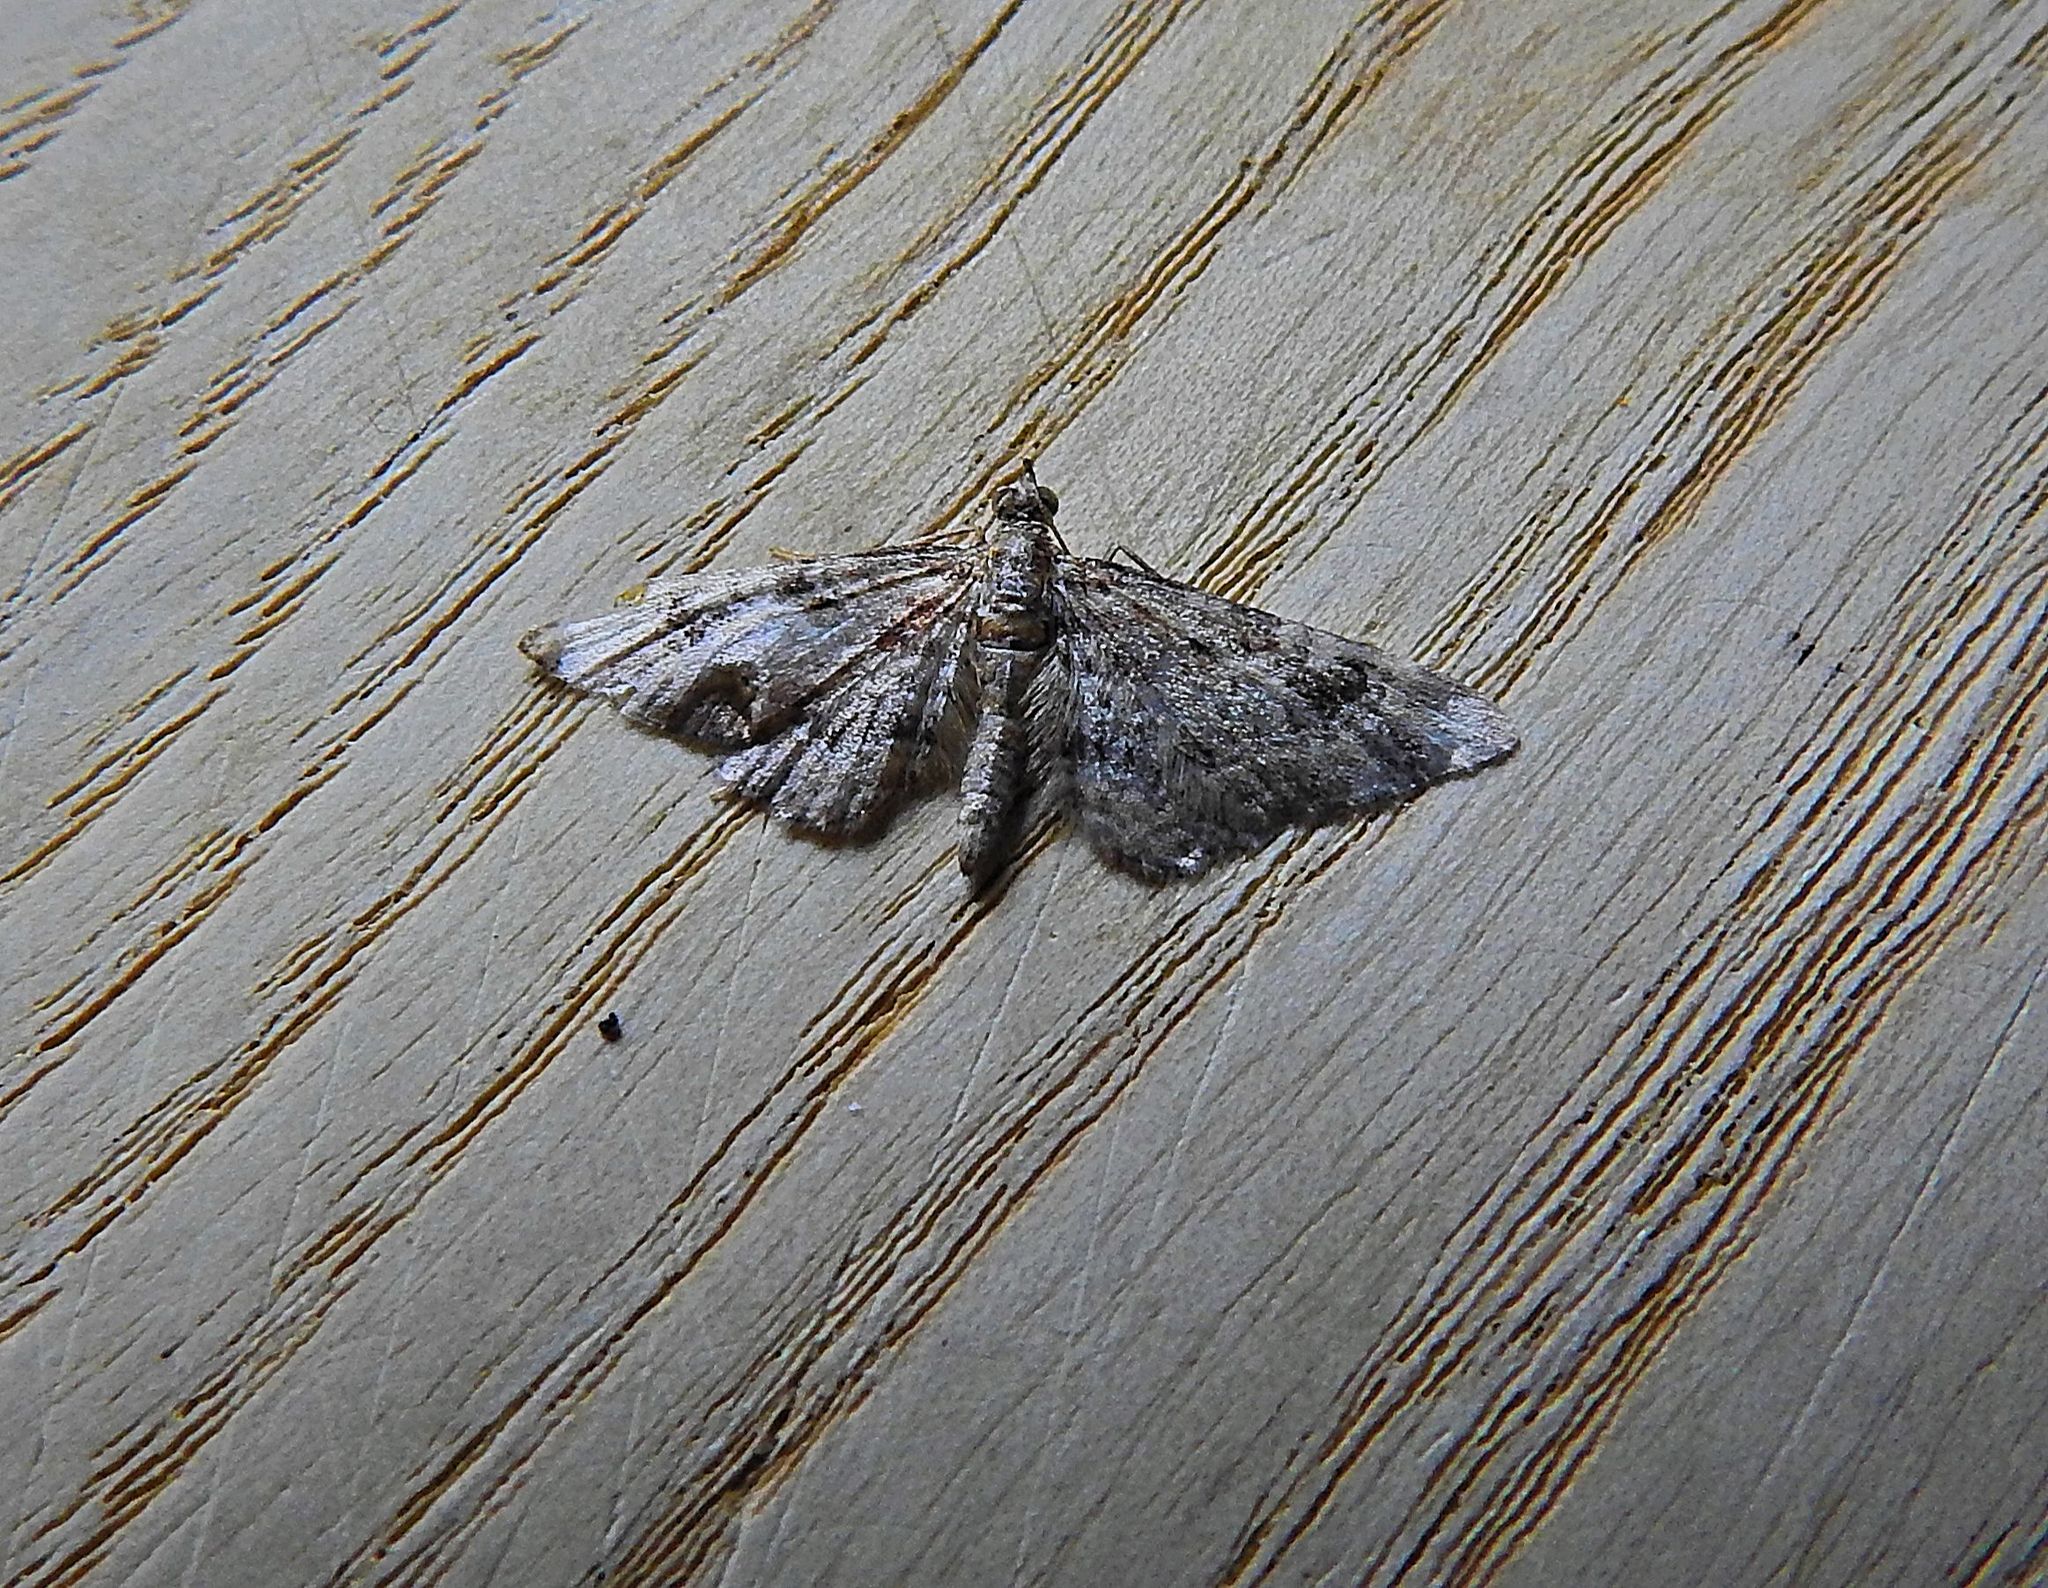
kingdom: Animalia
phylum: Arthropoda
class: Insecta
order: Lepidoptera
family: Geometridae
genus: Gymnoscelis
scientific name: Gymnoscelis rufifasciata
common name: Double-striped pug
